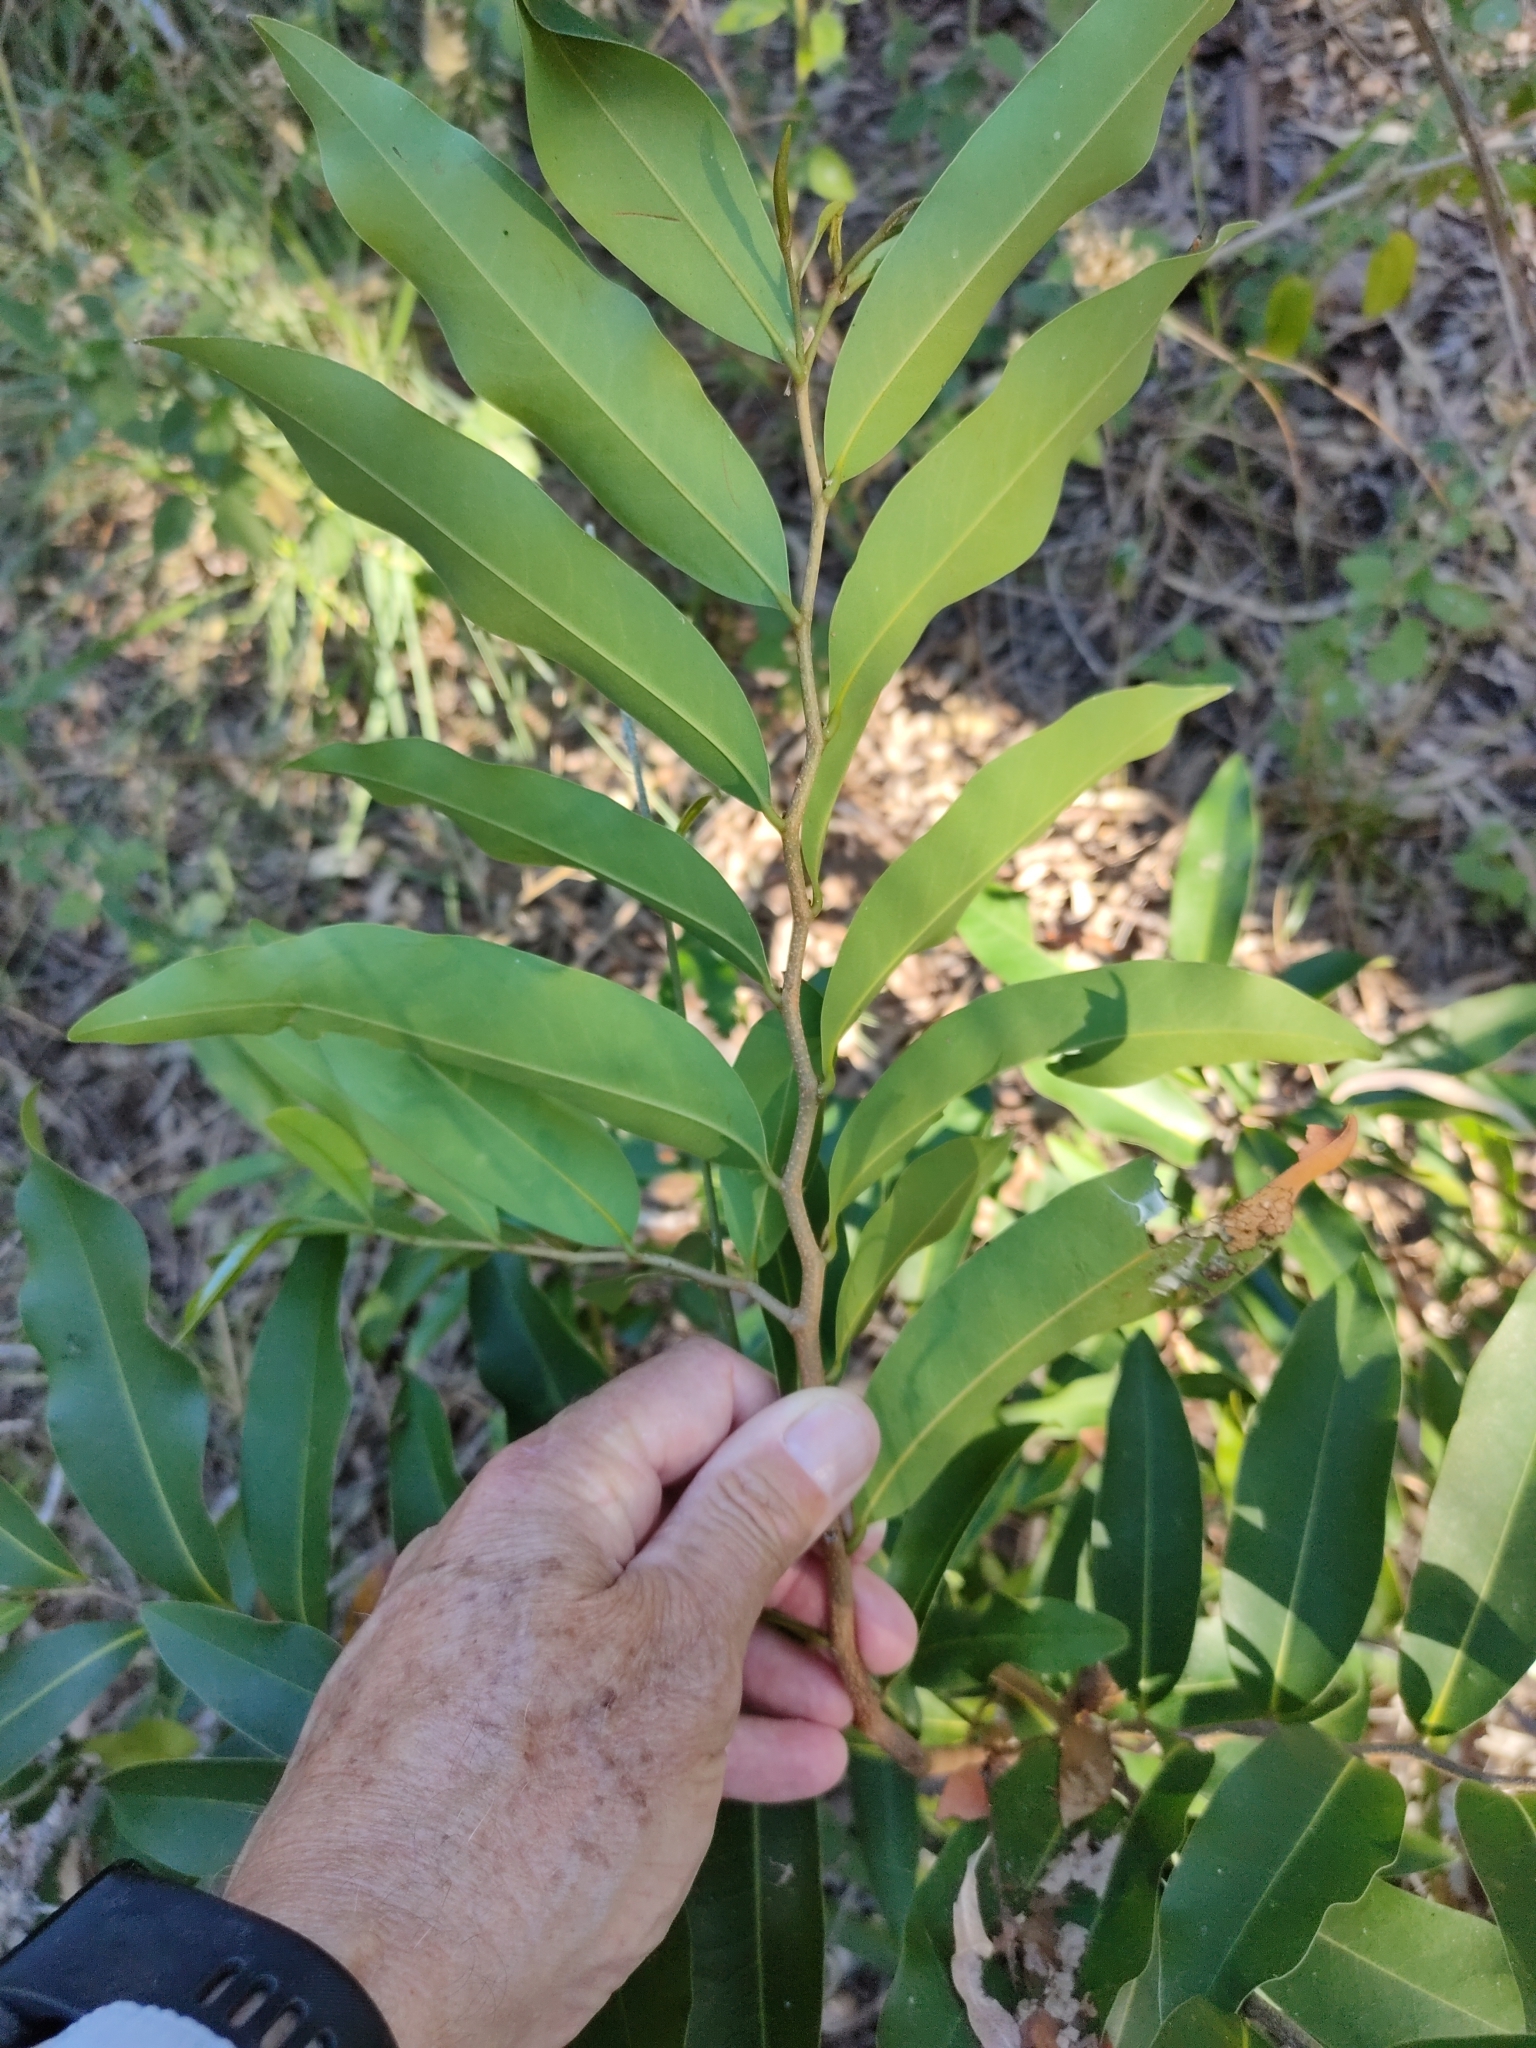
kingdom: Plantae
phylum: Tracheophyta
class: Magnoliopsida
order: Magnoliales
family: Annonaceae
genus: Uvaria
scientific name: Uvaria leichhardtii
